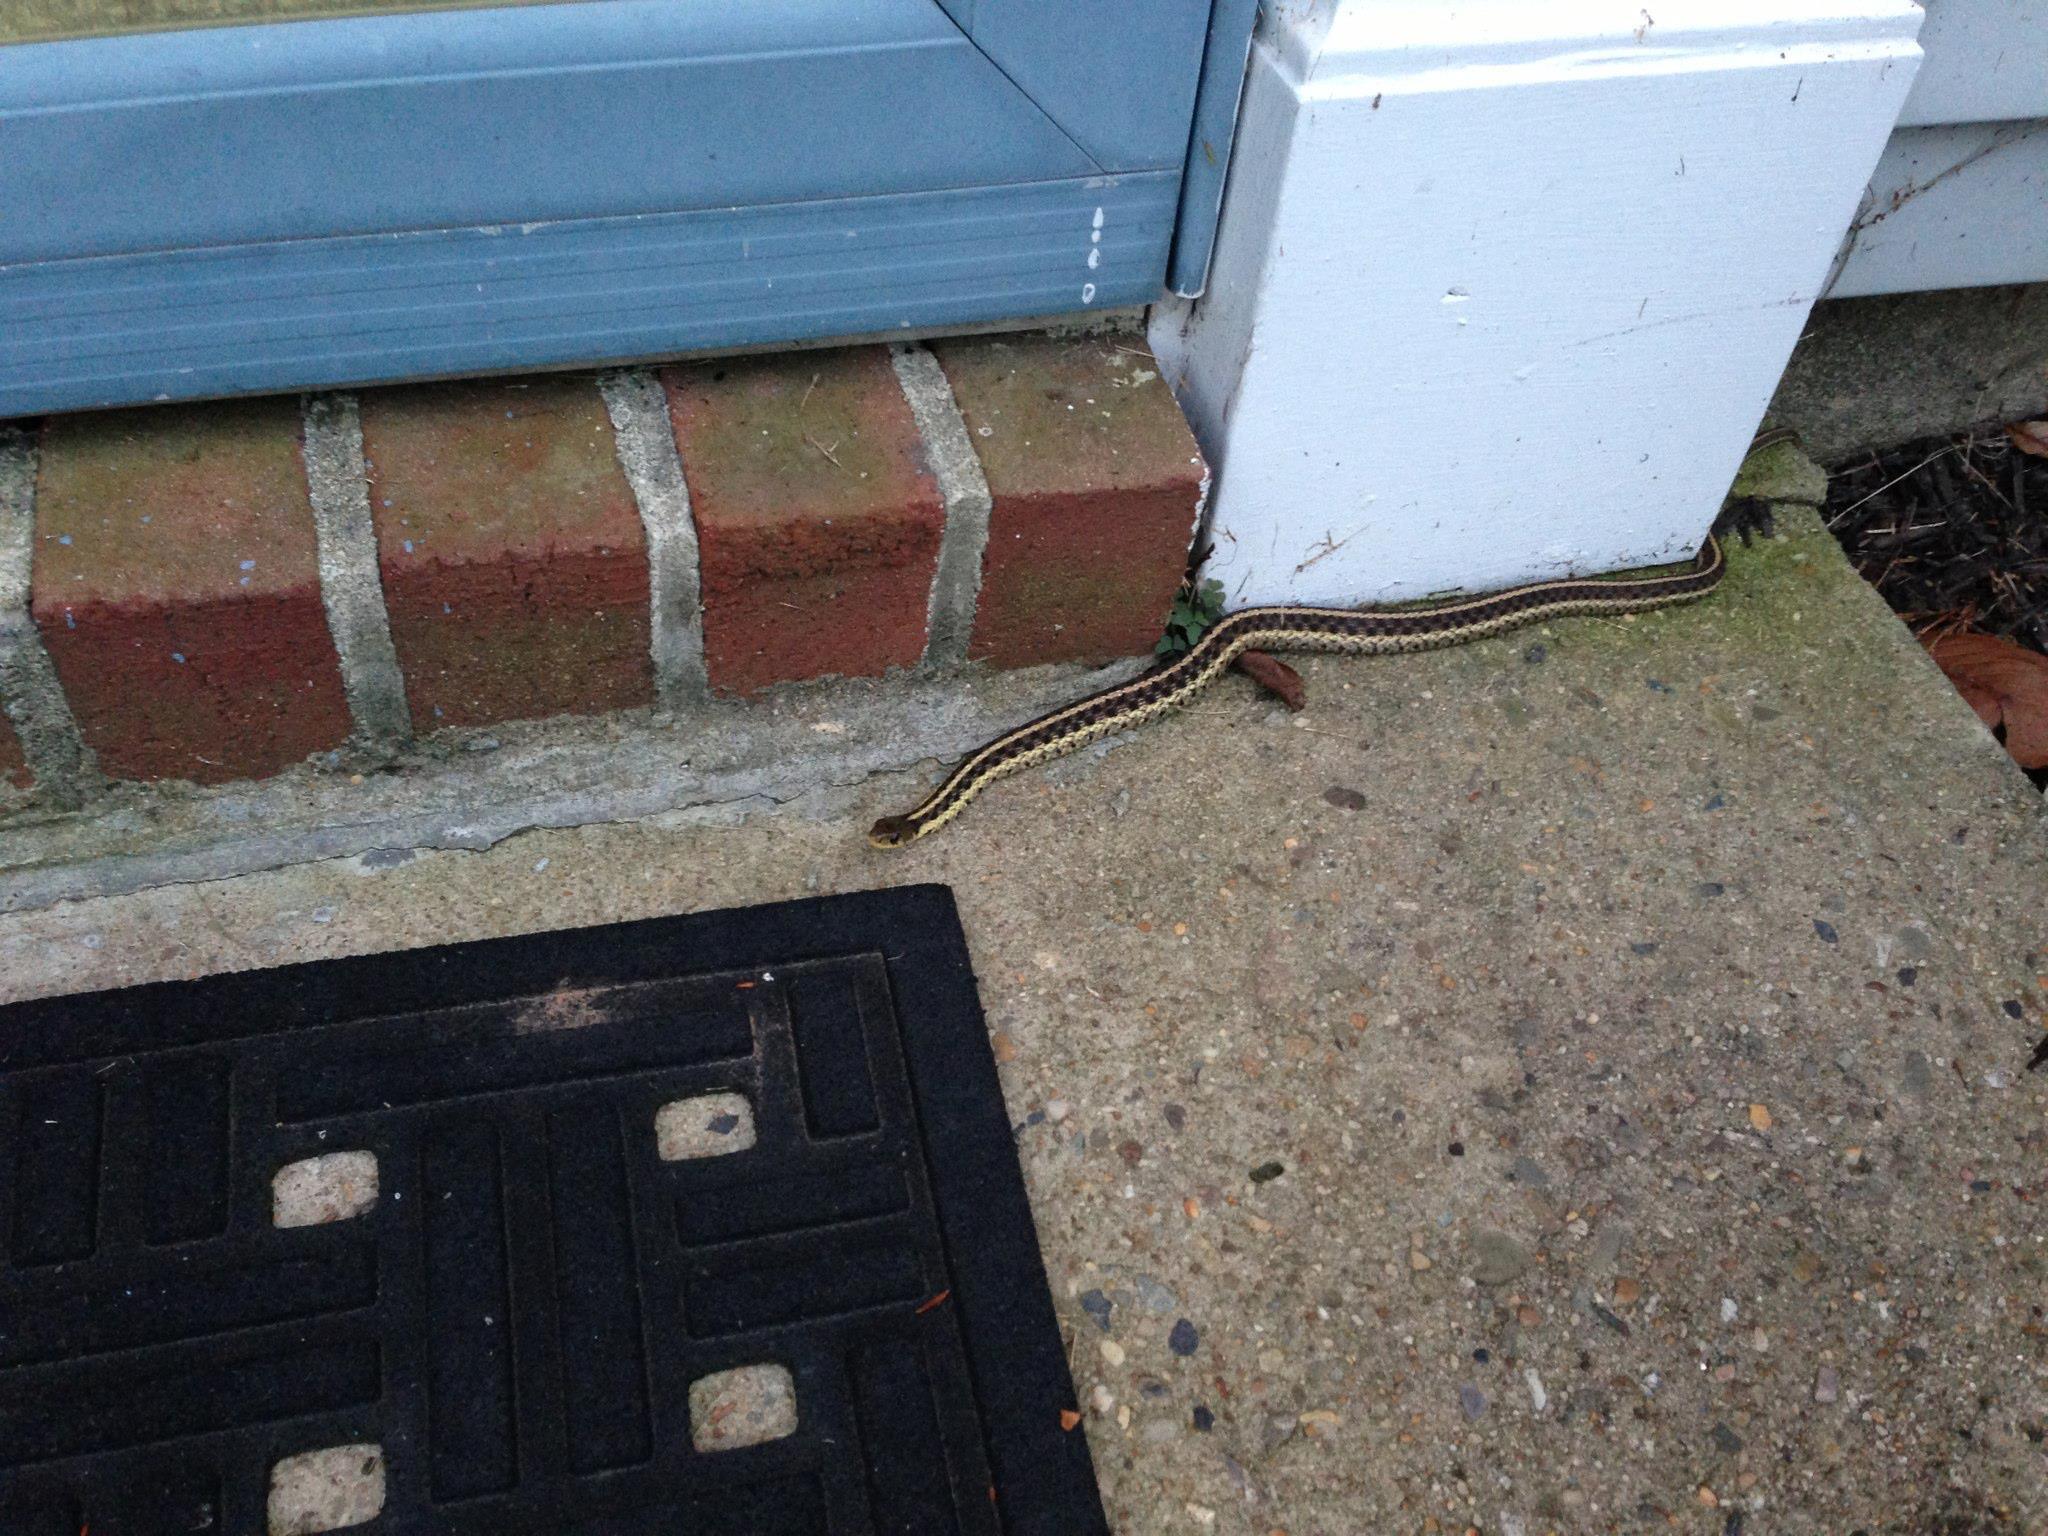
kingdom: Animalia
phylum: Chordata
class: Squamata
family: Colubridae
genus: Thamnophis
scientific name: Thamnophis sirtalis
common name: Common garter snake
